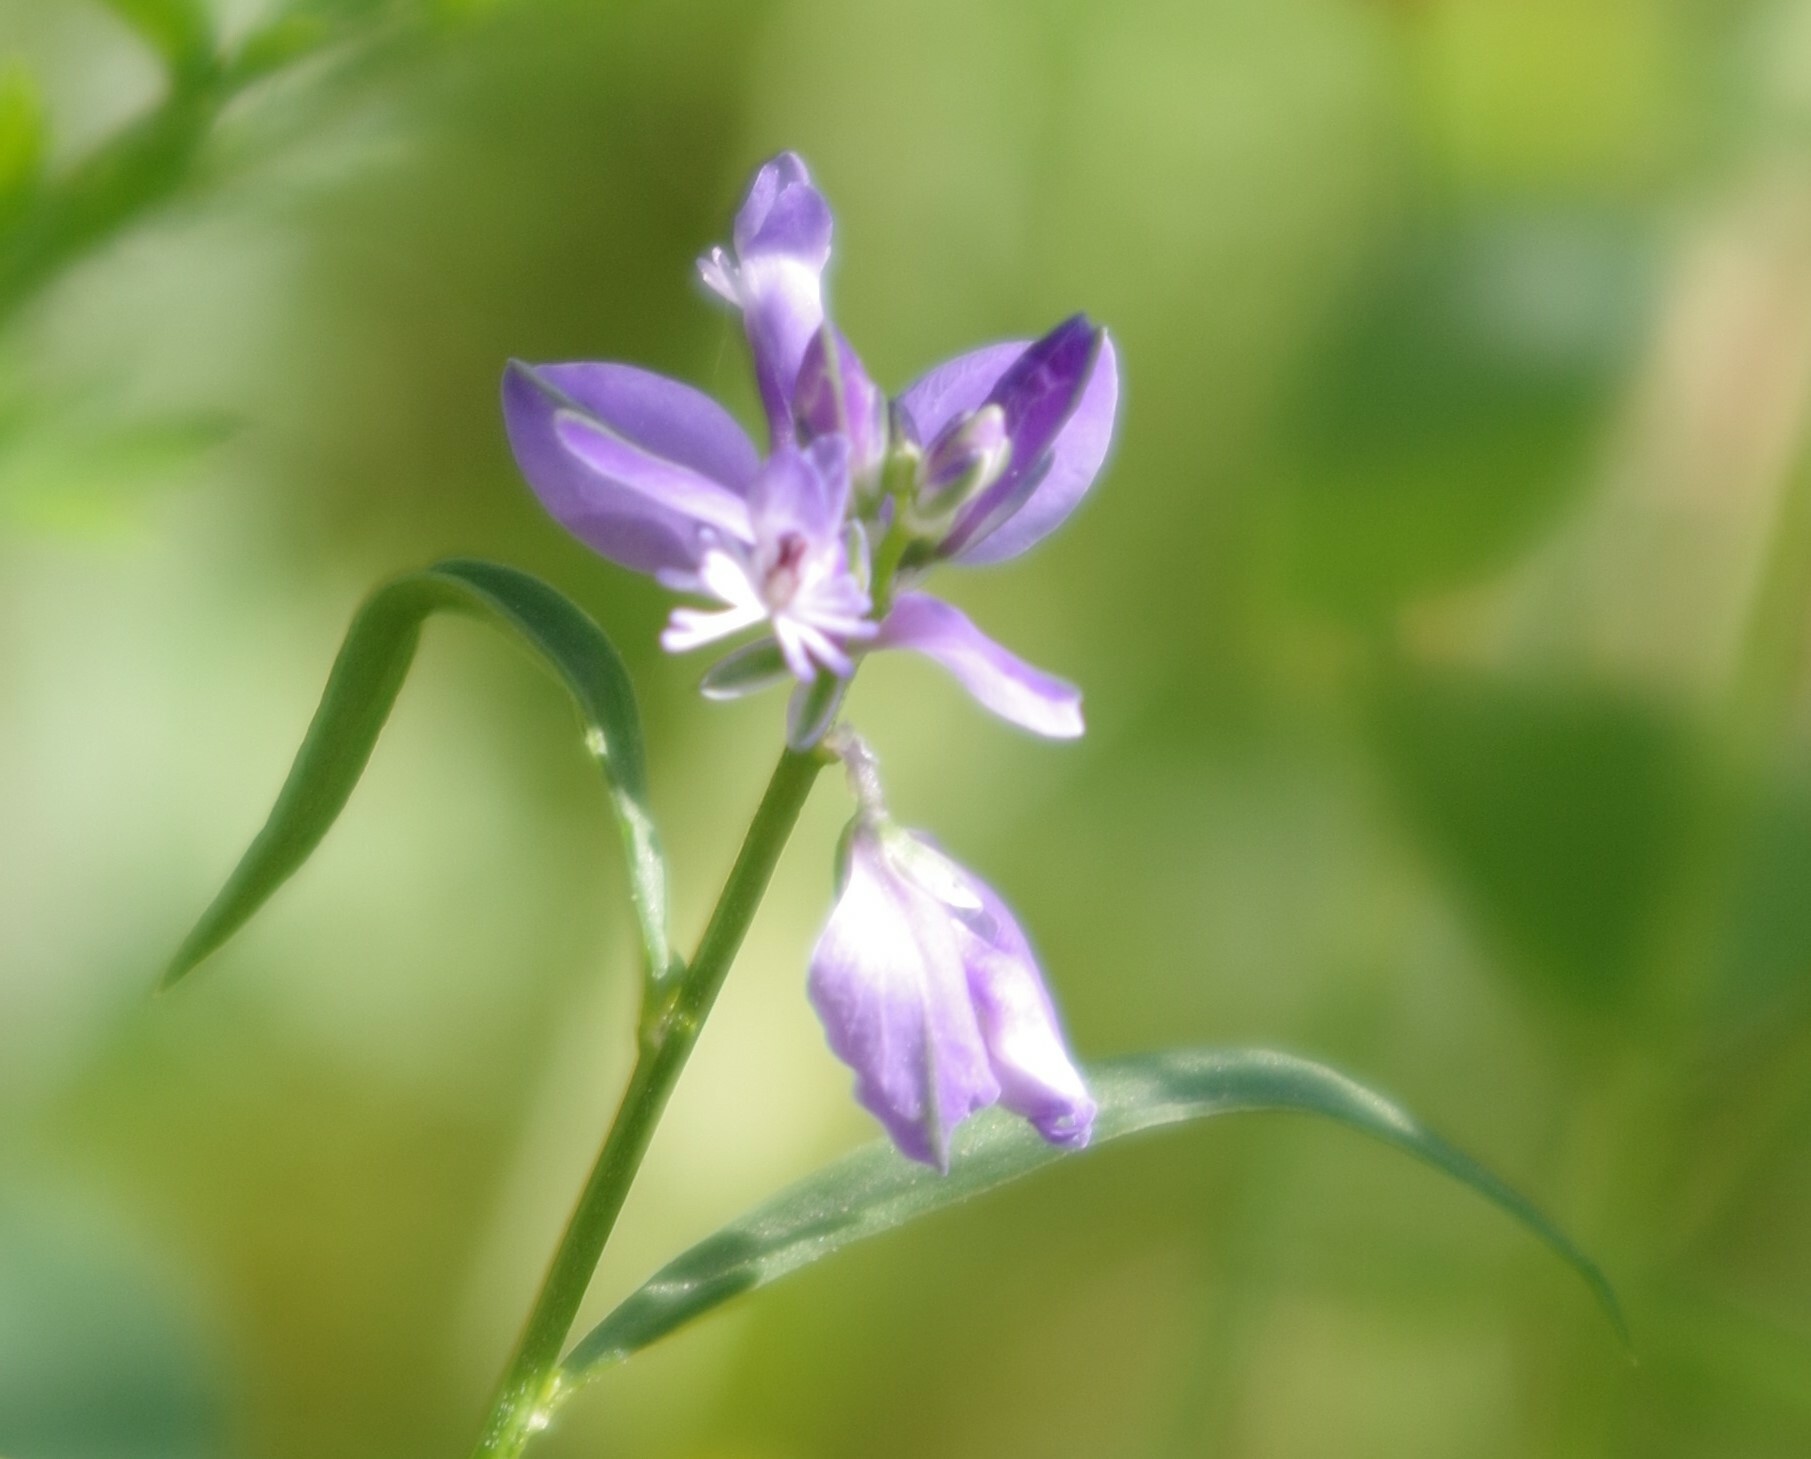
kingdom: Plantae
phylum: Tracheophyta
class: Magnoliopsida
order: Fabales
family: Polygalaceae
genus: Polygala
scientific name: Polygala vulgaris
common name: Common milkwort
